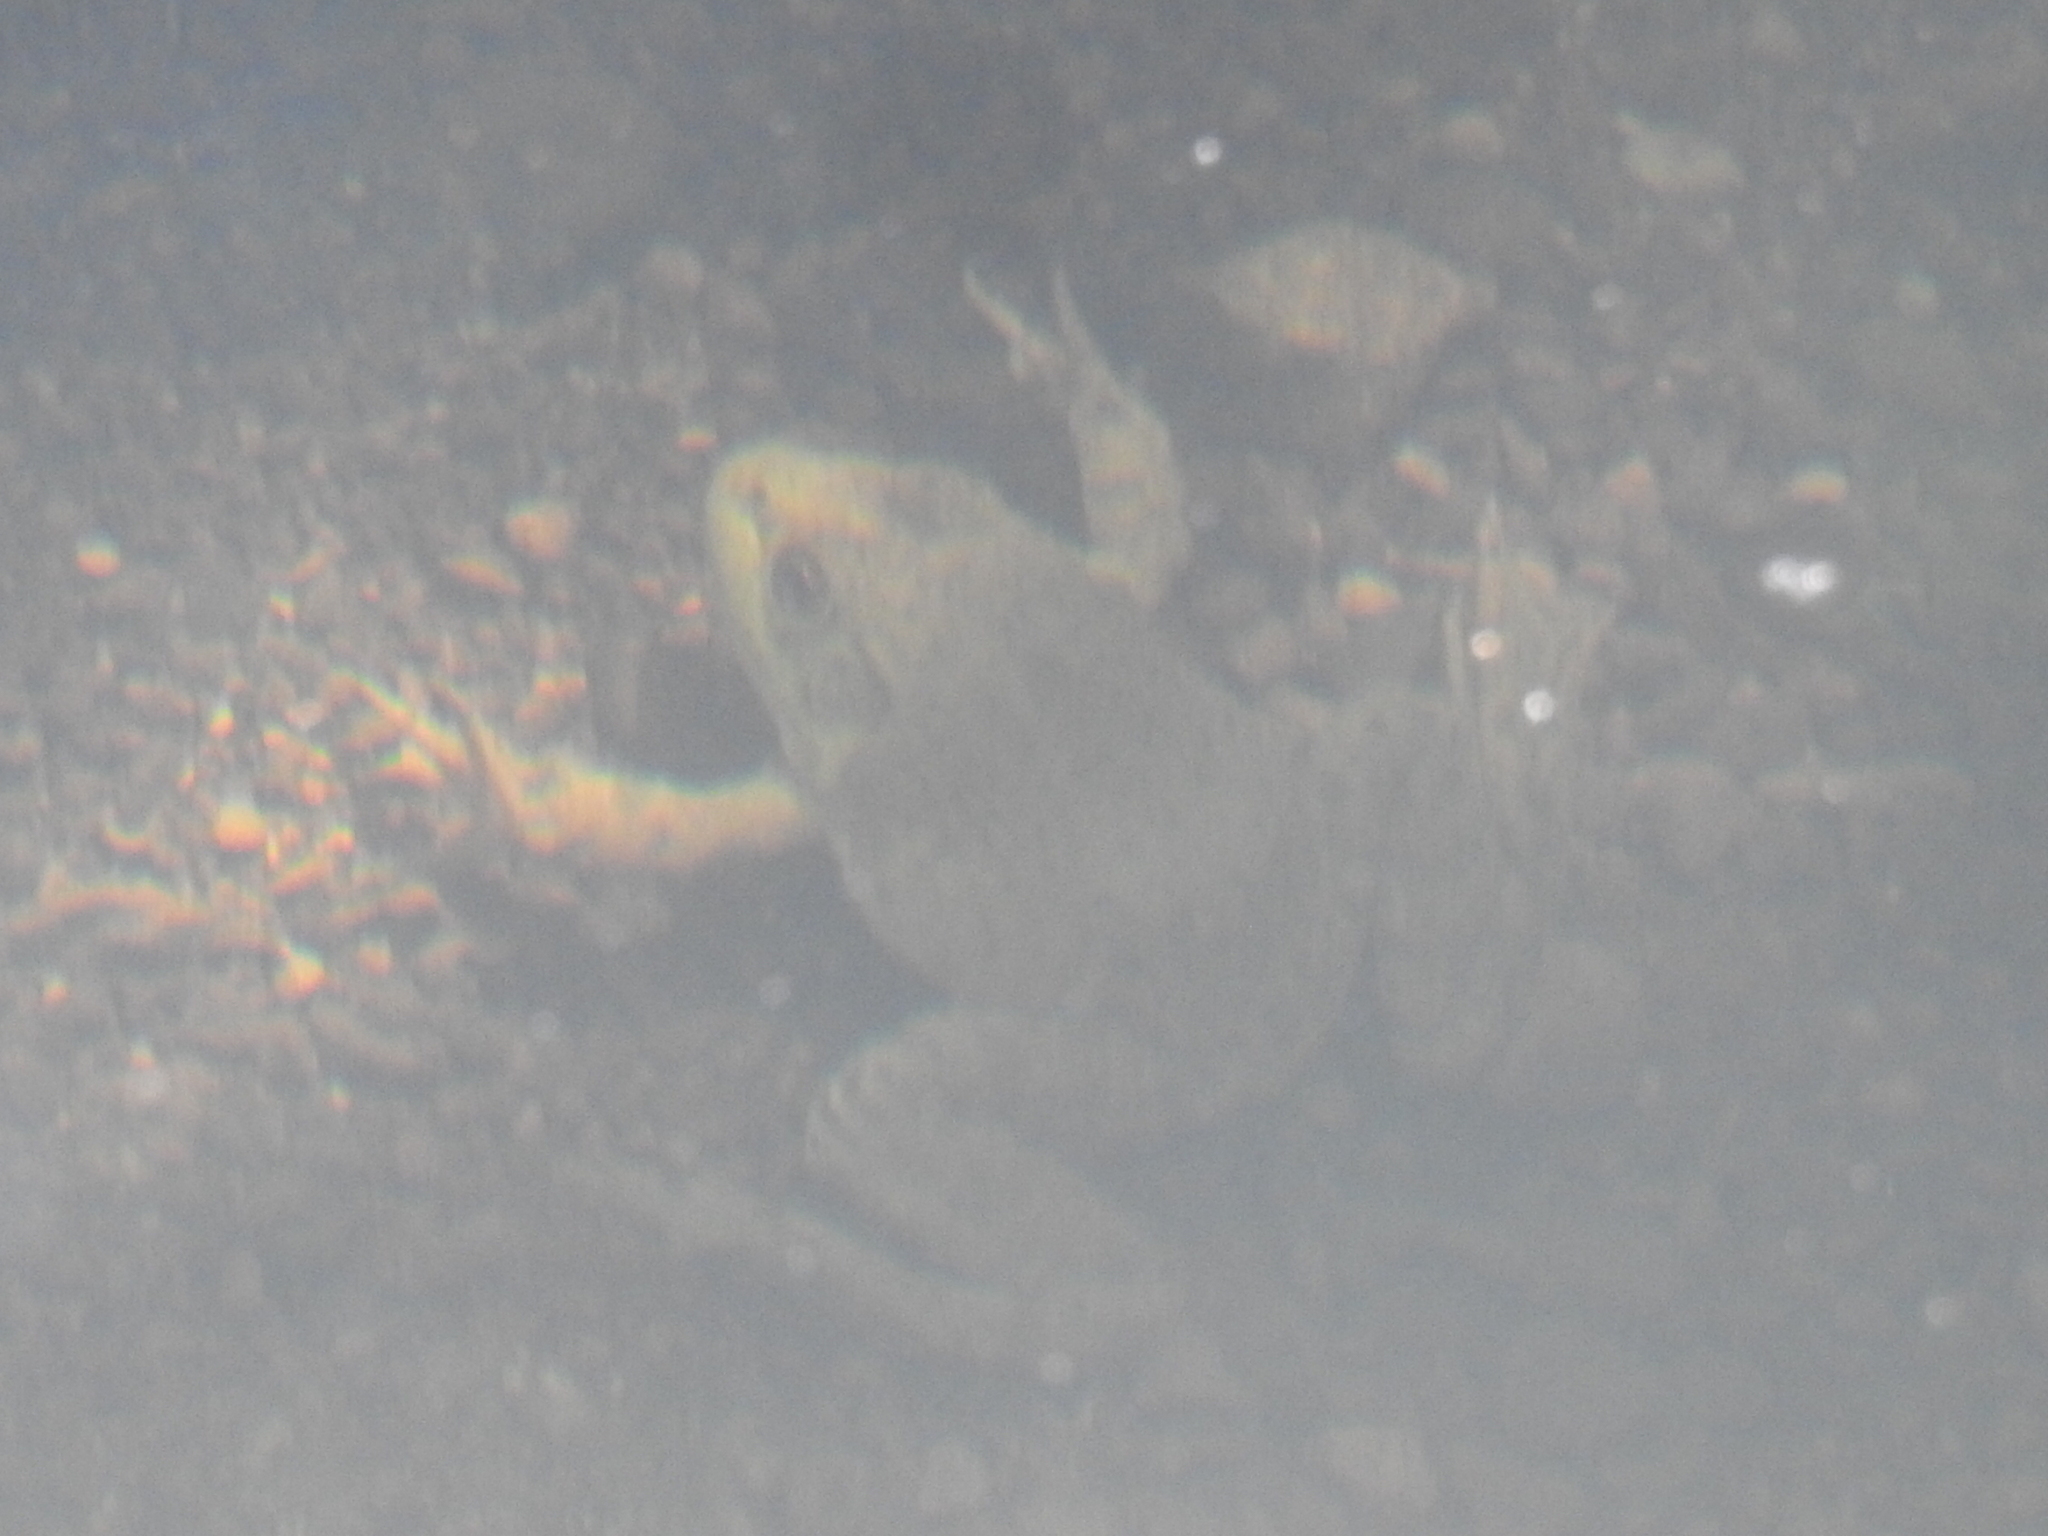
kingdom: Animalia
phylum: Chordata
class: Amphibia
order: Anura
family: Ranidae
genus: Lithobates
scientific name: Lithobates catesbeianus
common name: American bullfrog
